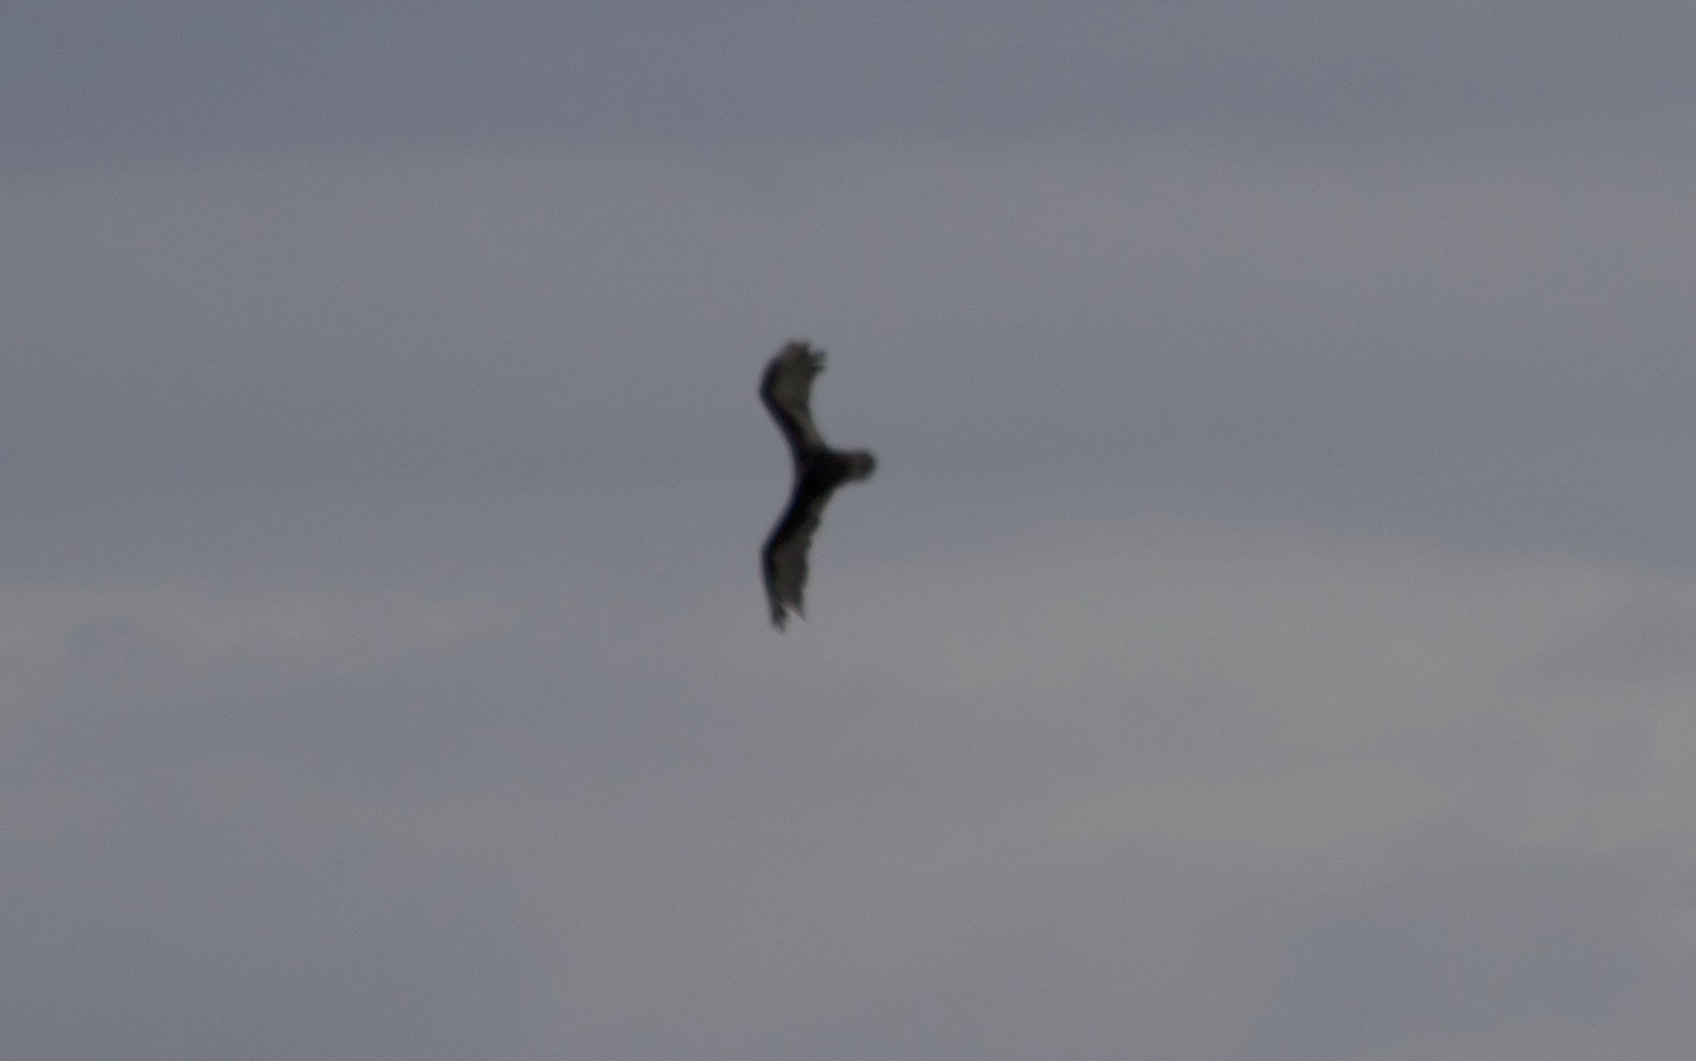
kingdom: Animalia
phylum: Chordata
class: Aves
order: Accipitriformes
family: Cathartidae
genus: Cathartes
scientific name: Cathartes aura
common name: Turkey vulture
